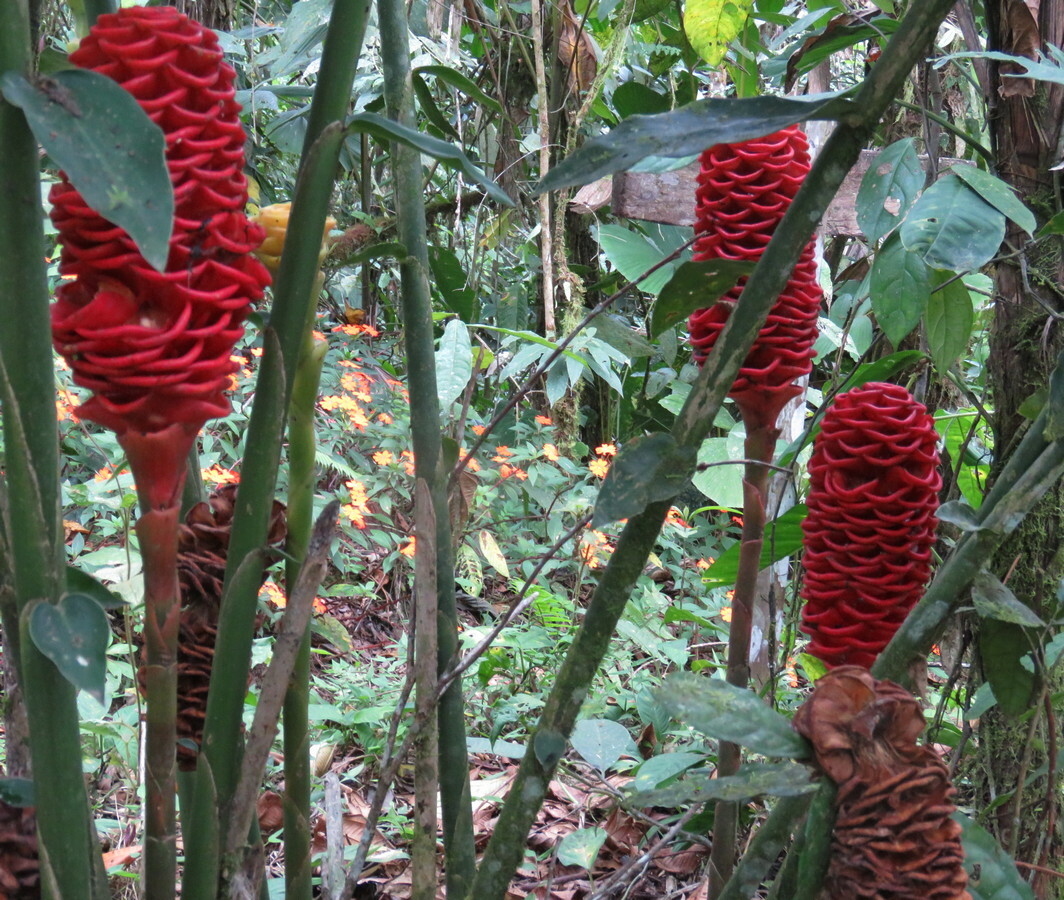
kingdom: Plantae
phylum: Tracheophyta
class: Liliopsida
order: Zingiberales
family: Zingiberaceae
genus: Zingiber
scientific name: Zingiber spectabile
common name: Beehive ginger
